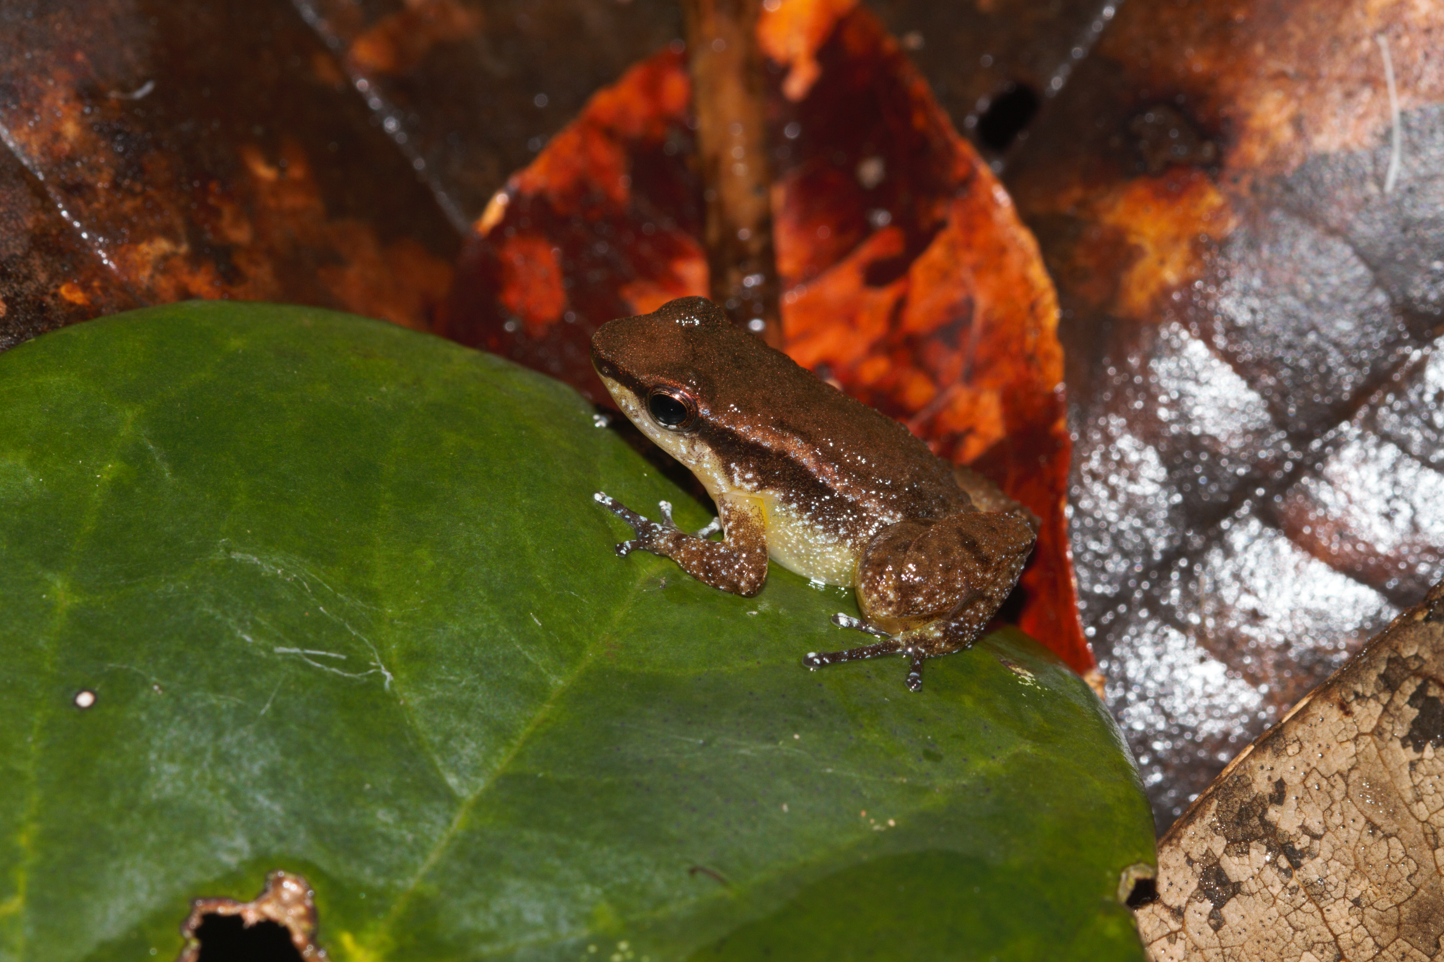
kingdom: Animalia
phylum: Chordata
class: Amphibia
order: Anura
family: Aromobatidae
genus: Anomaloglossus
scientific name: Anomaloglossus baeobatrachus
